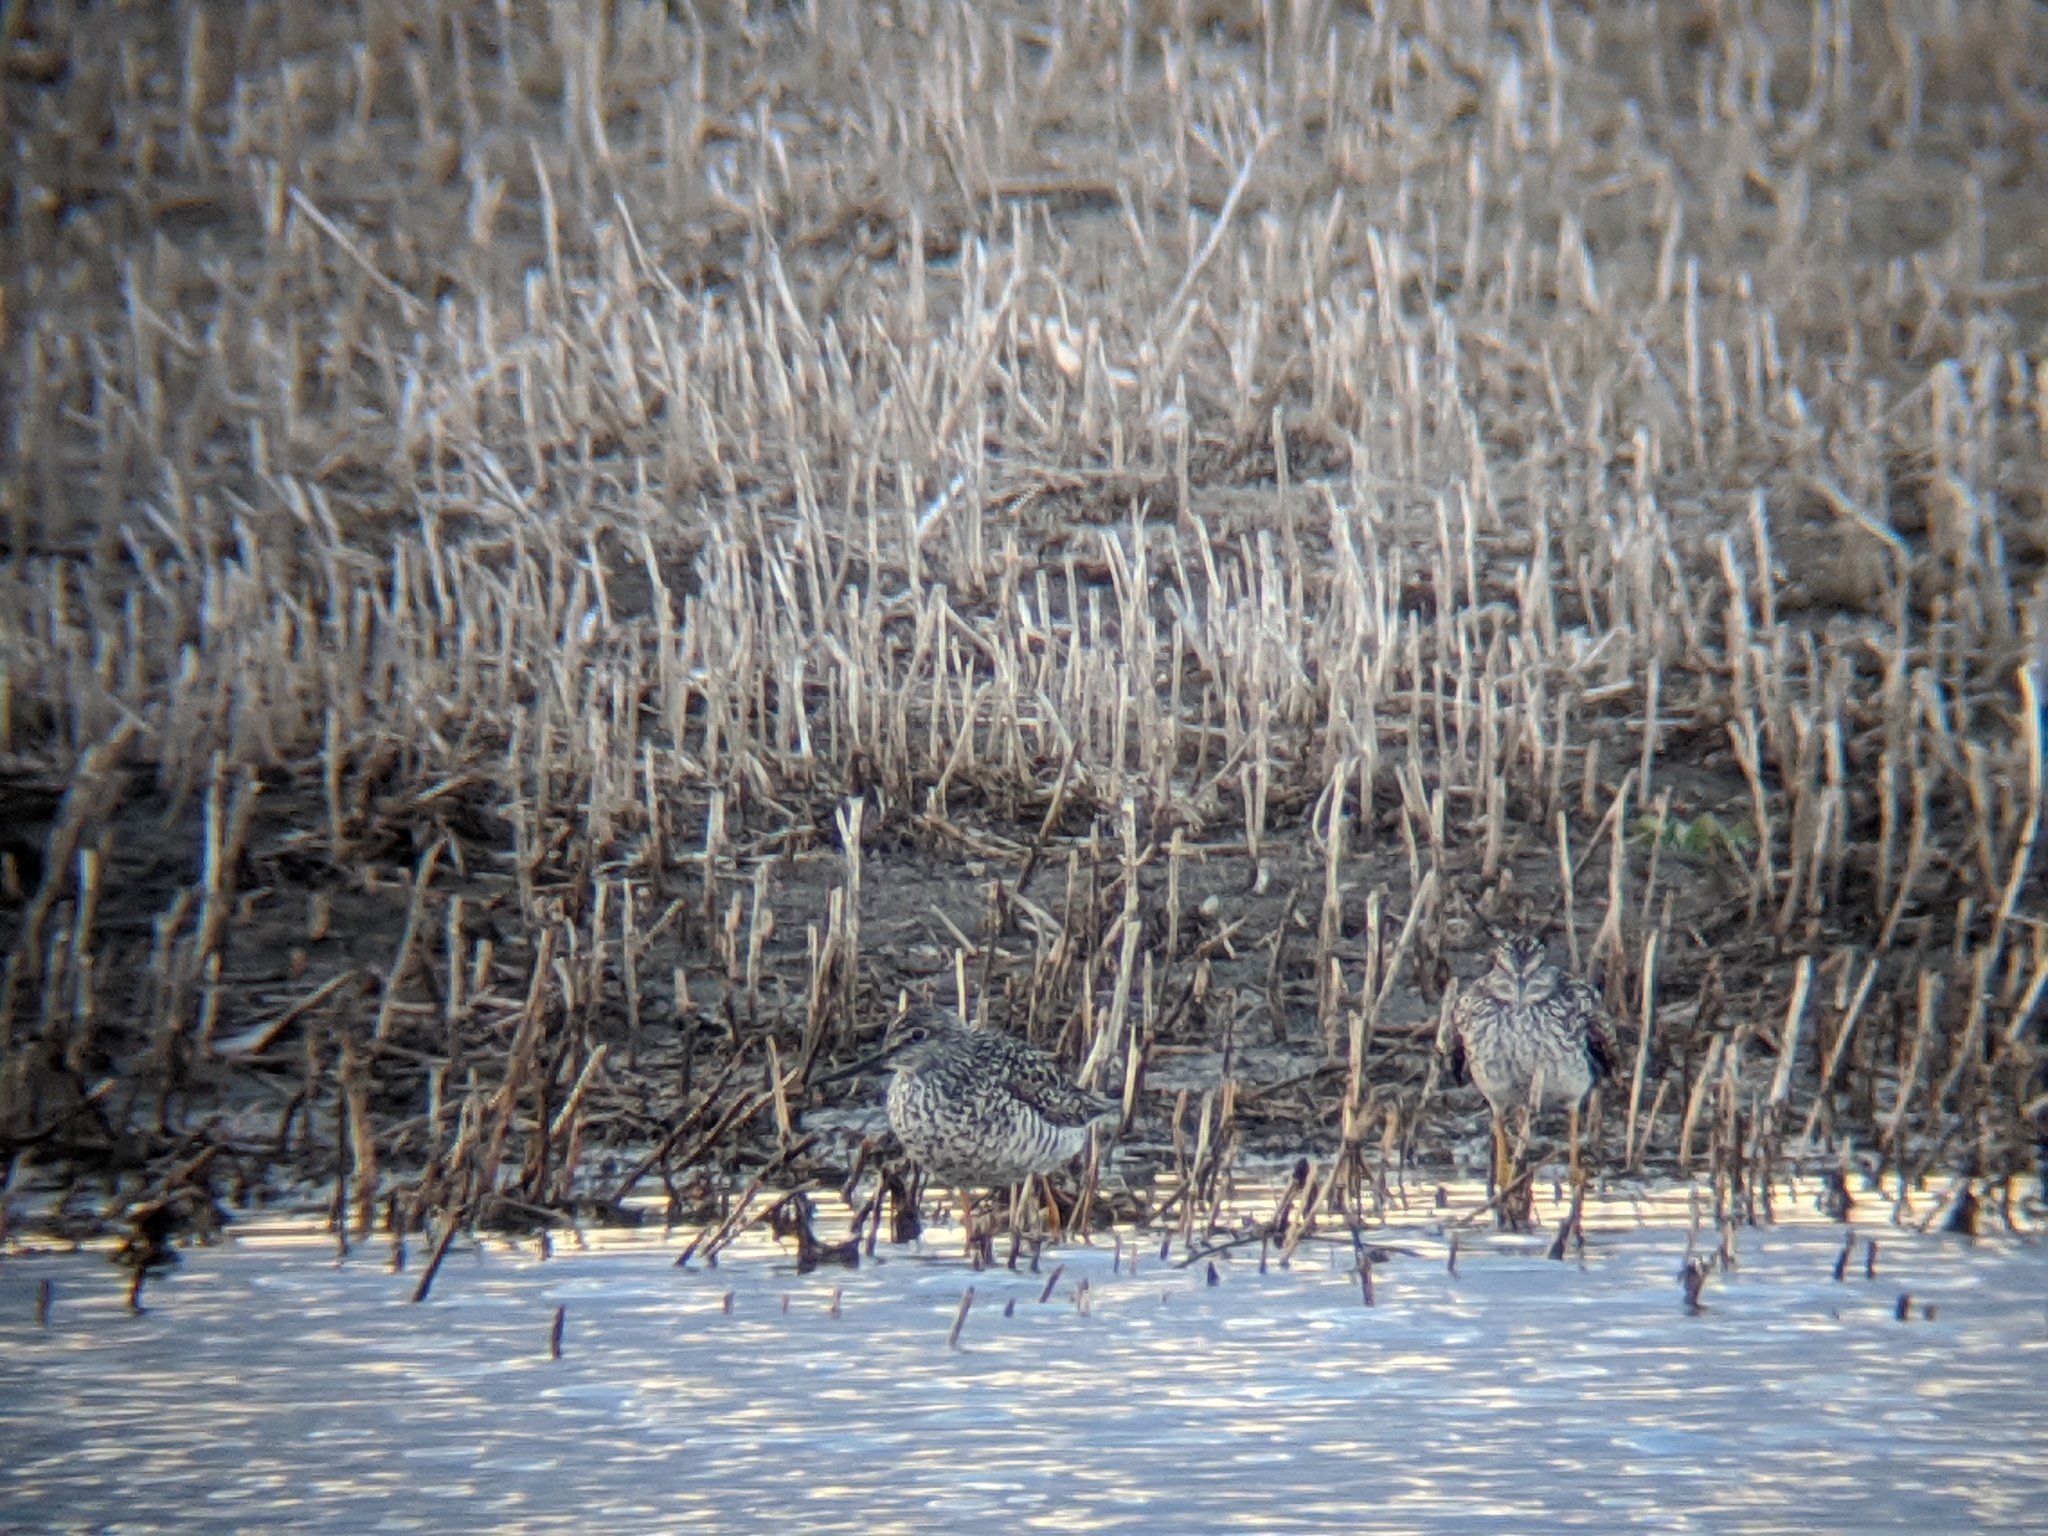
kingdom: Animalia
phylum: Chordata
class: Aves
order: Charadriiformes
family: Scolopacidae
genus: Tringa
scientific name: Tringa melanoleuca
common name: Greater yellowlegs
